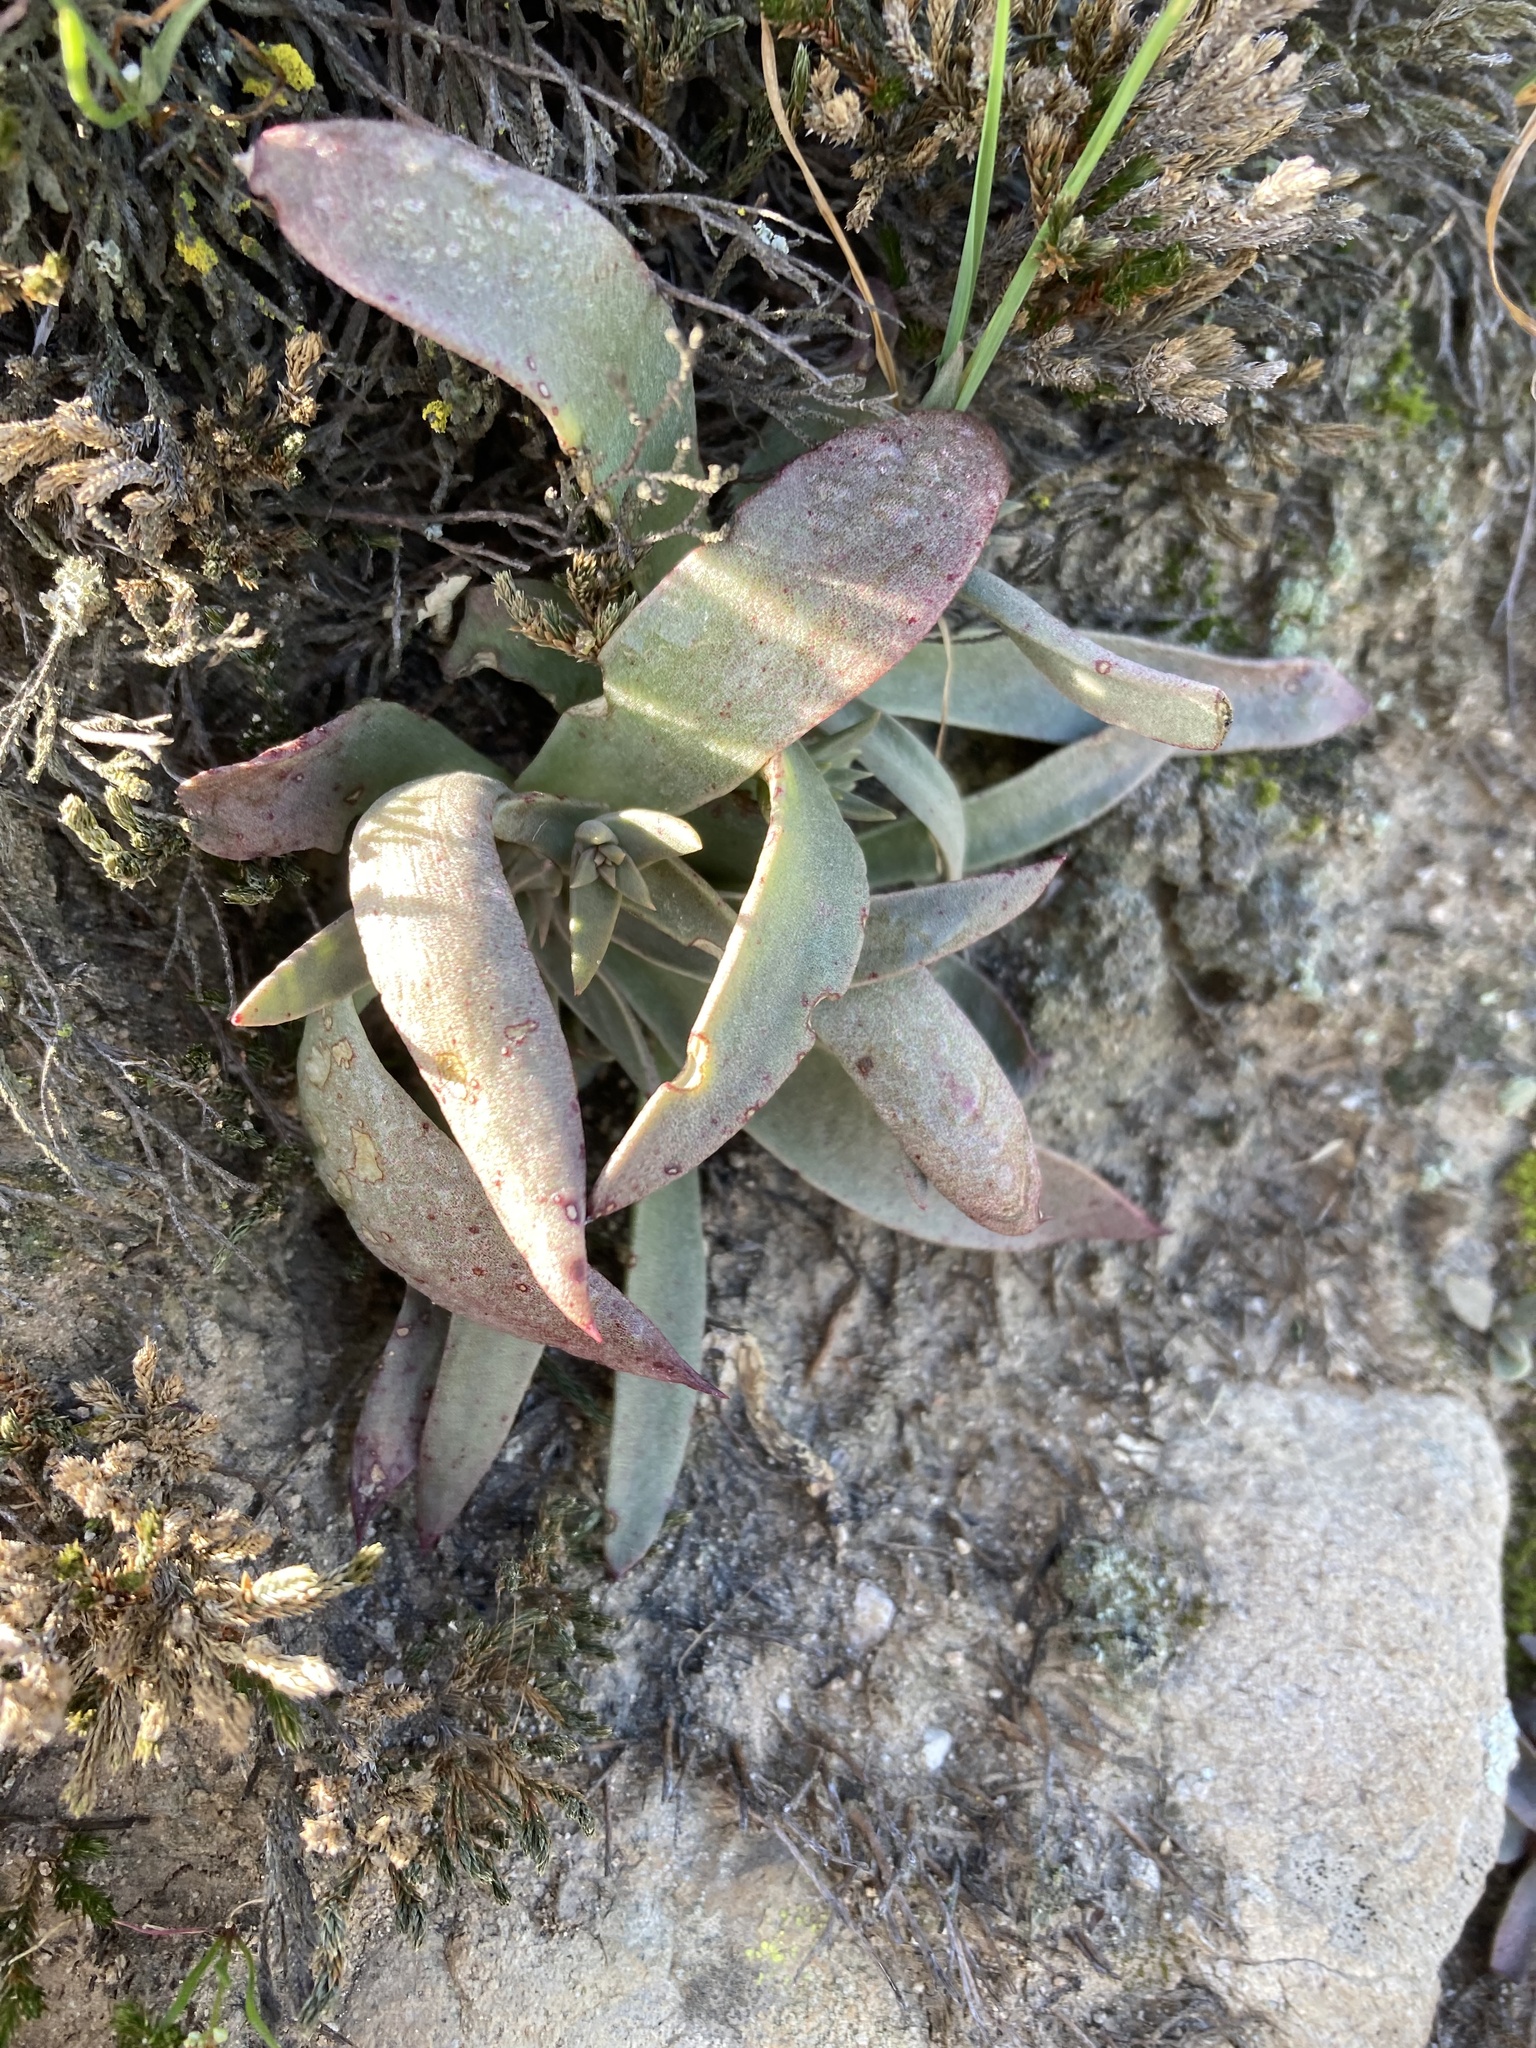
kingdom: Plantae
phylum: Tracheophyta
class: Magnoliopsida
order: Saxifragales
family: Crassulaceae
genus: Dudleya
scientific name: Dudleya lanceolata
